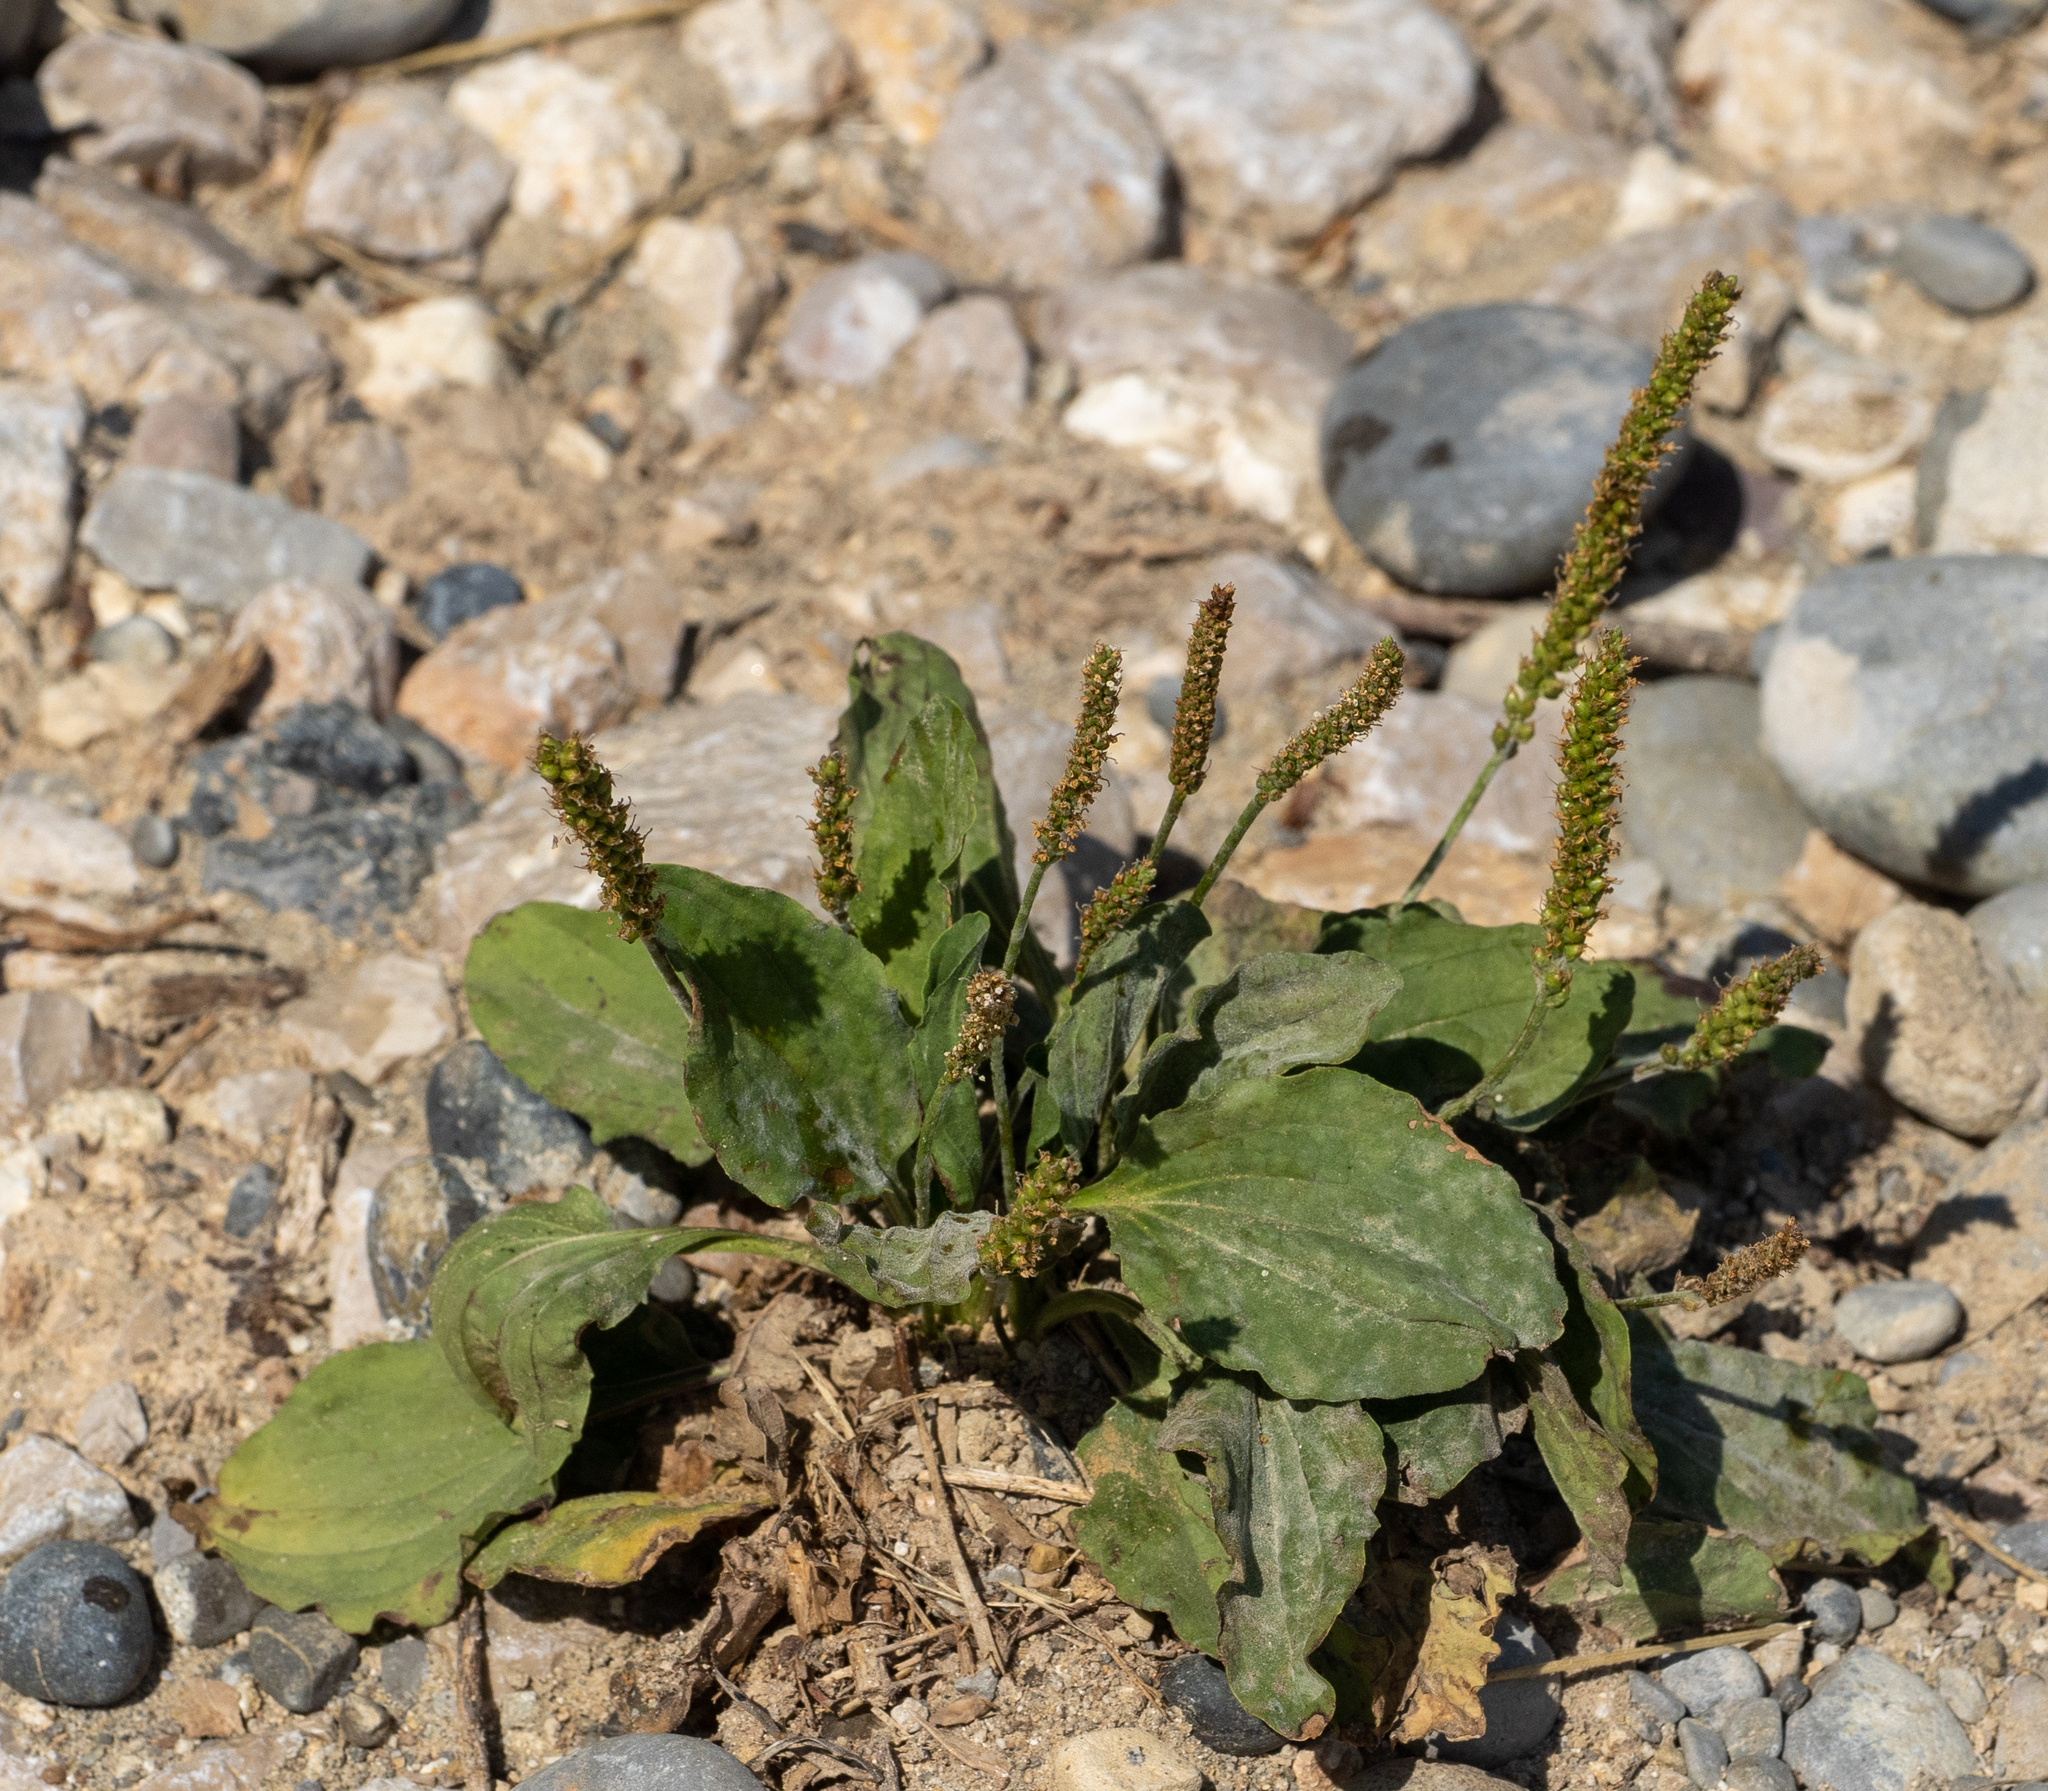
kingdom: Plantae
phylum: Tracheophyta
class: Magnoliopsida
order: Lamiales
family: Plantaginaceae
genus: Plantago
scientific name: Plantago major
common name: Common plantain
